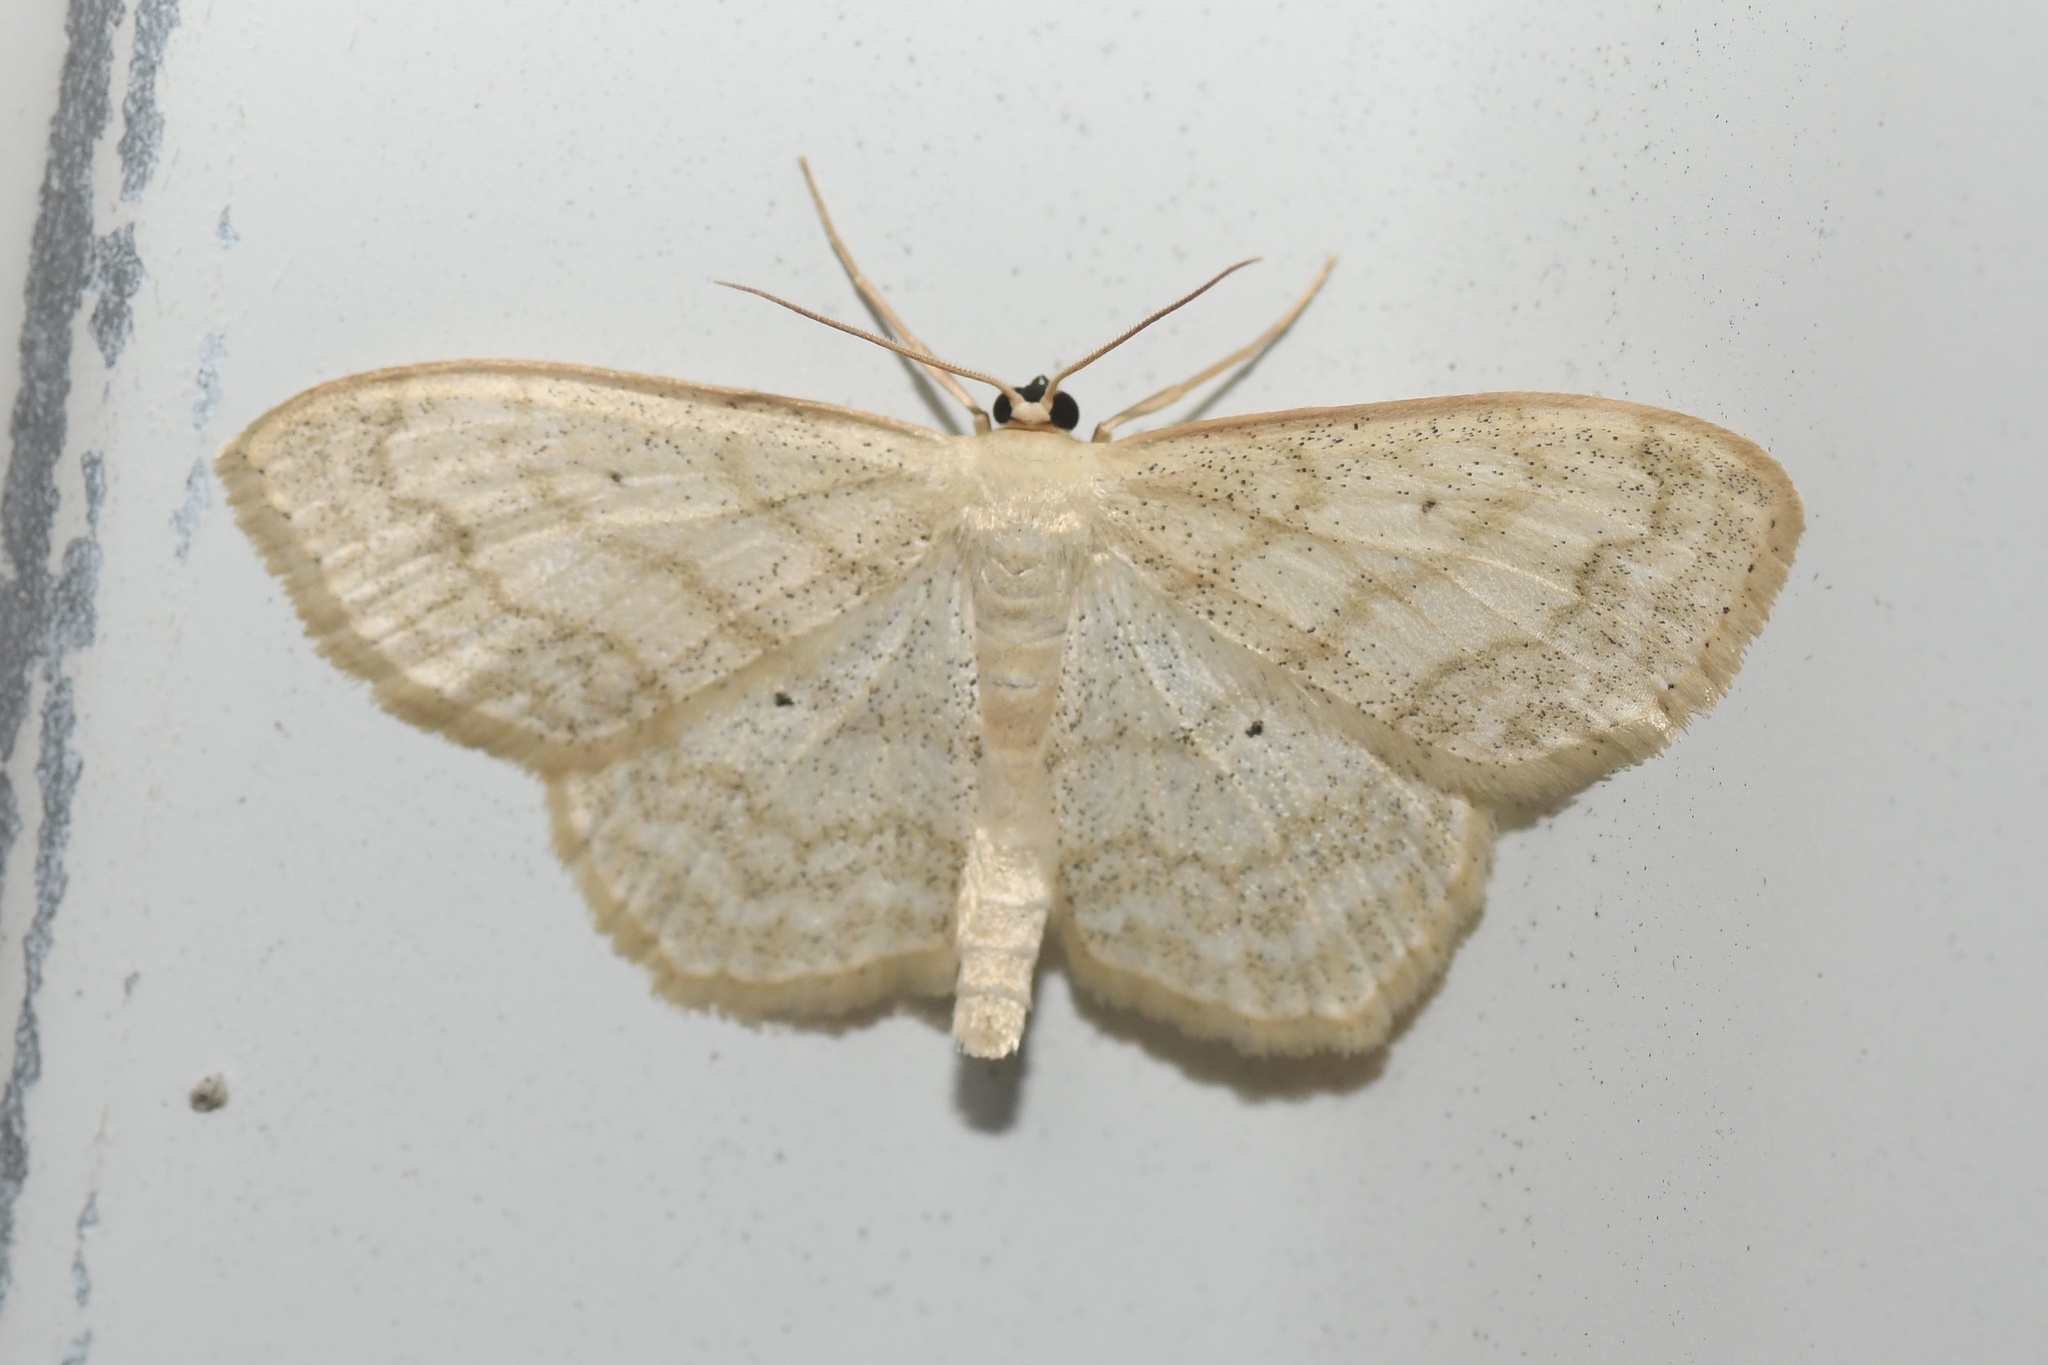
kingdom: Animalia
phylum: Arthropoda
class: Insecta
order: Lepidoptera
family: Geometridae
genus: Scopula
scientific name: Scopula limboundata
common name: Large lace border
